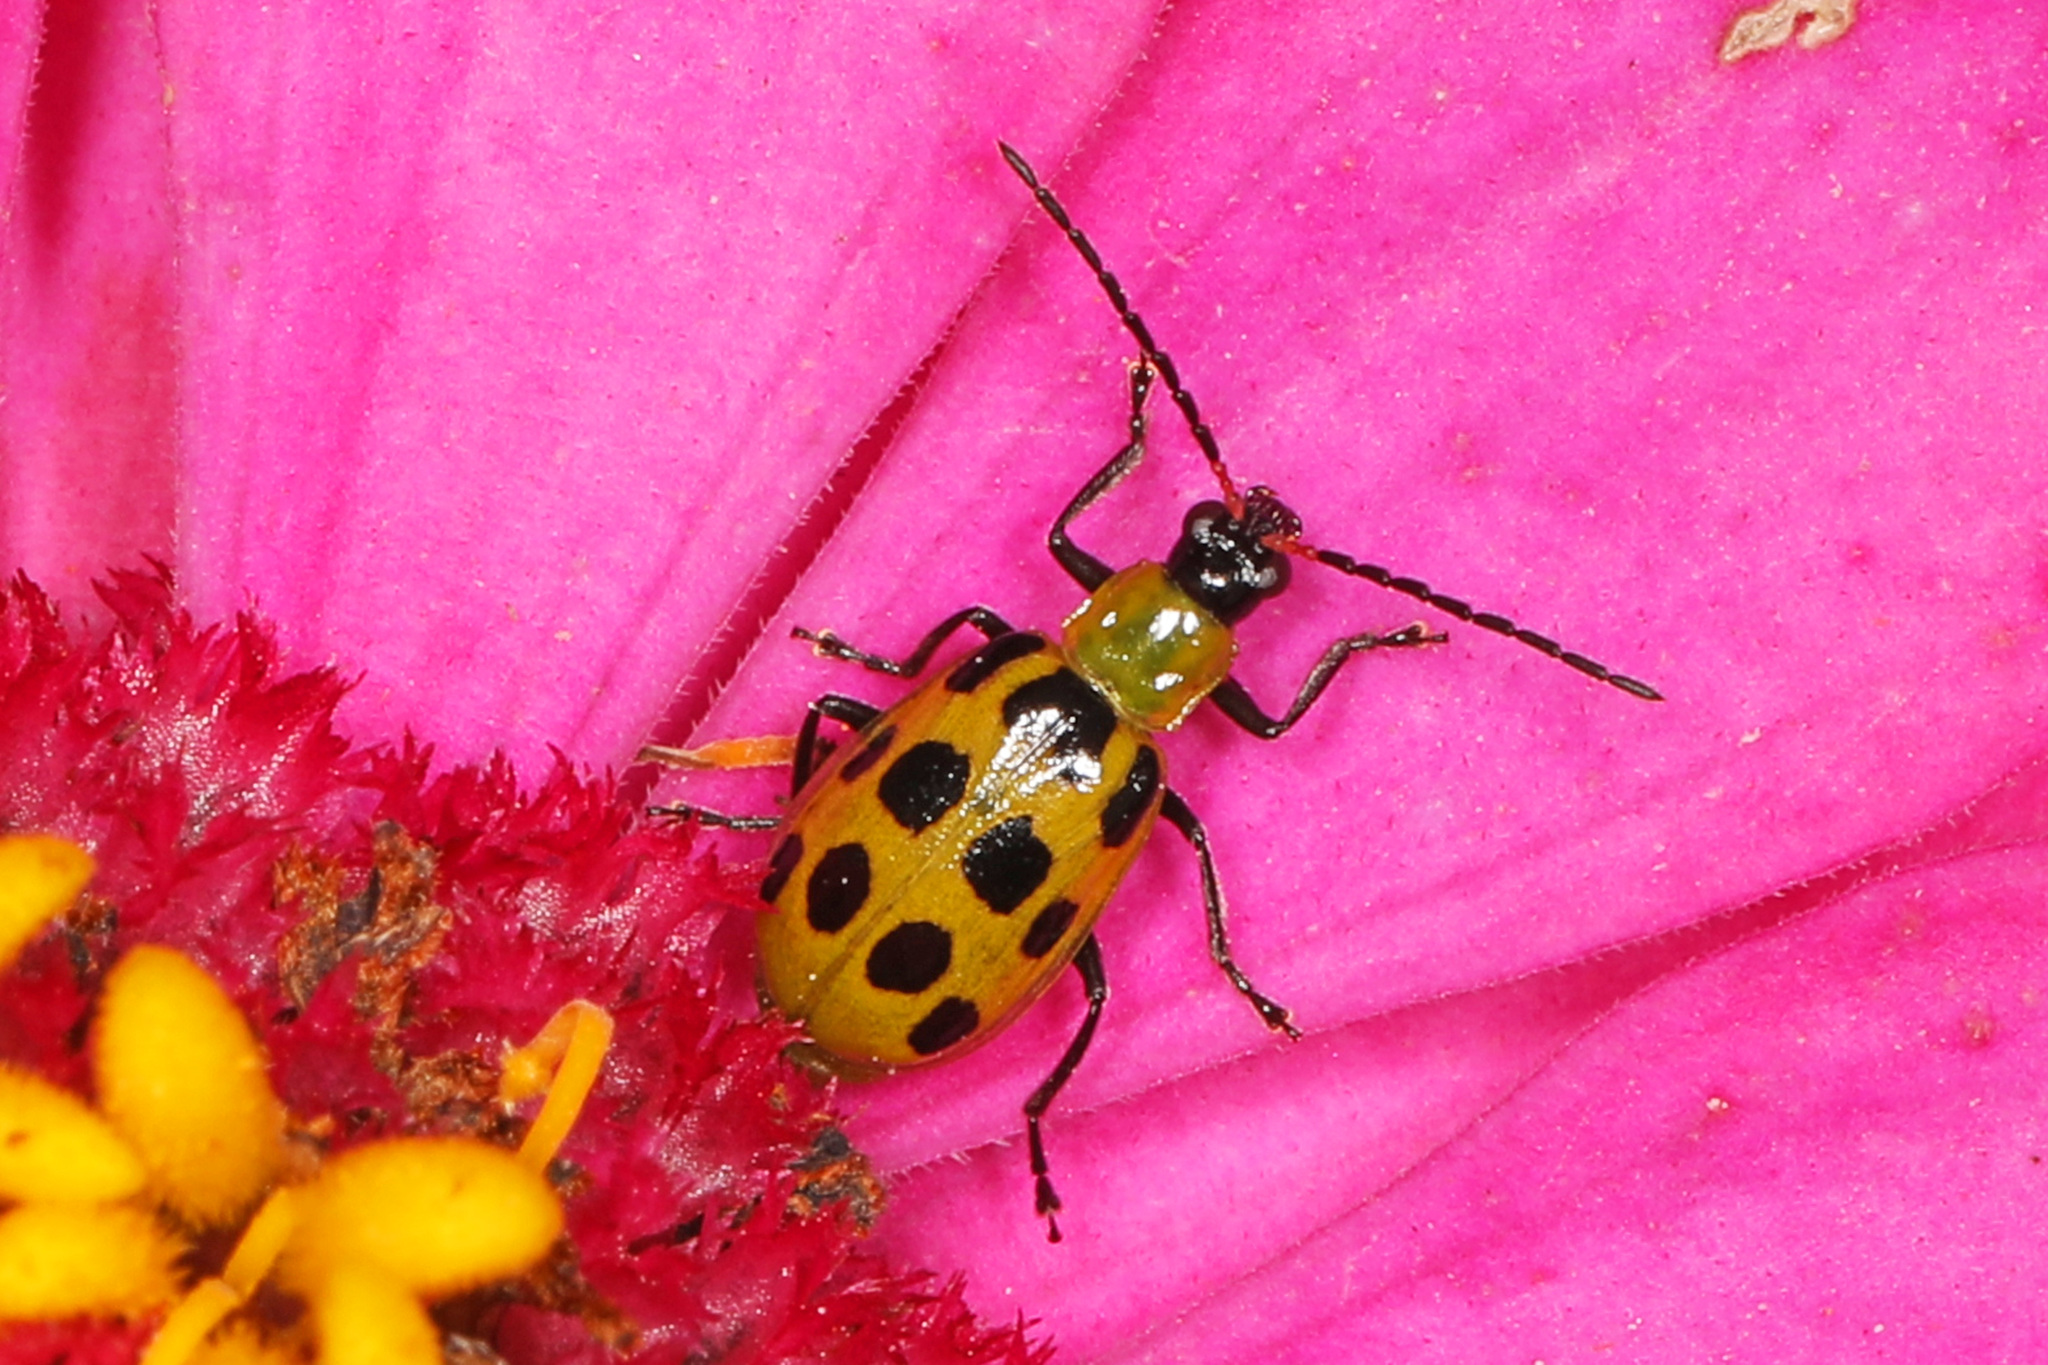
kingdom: Animalia
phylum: Arthropoda
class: Insecta
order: Coleoptera
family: Chrysomelidae
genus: Diabrotica
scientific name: Diabrotica undecimpunctata
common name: Spotted cucumber beetle
